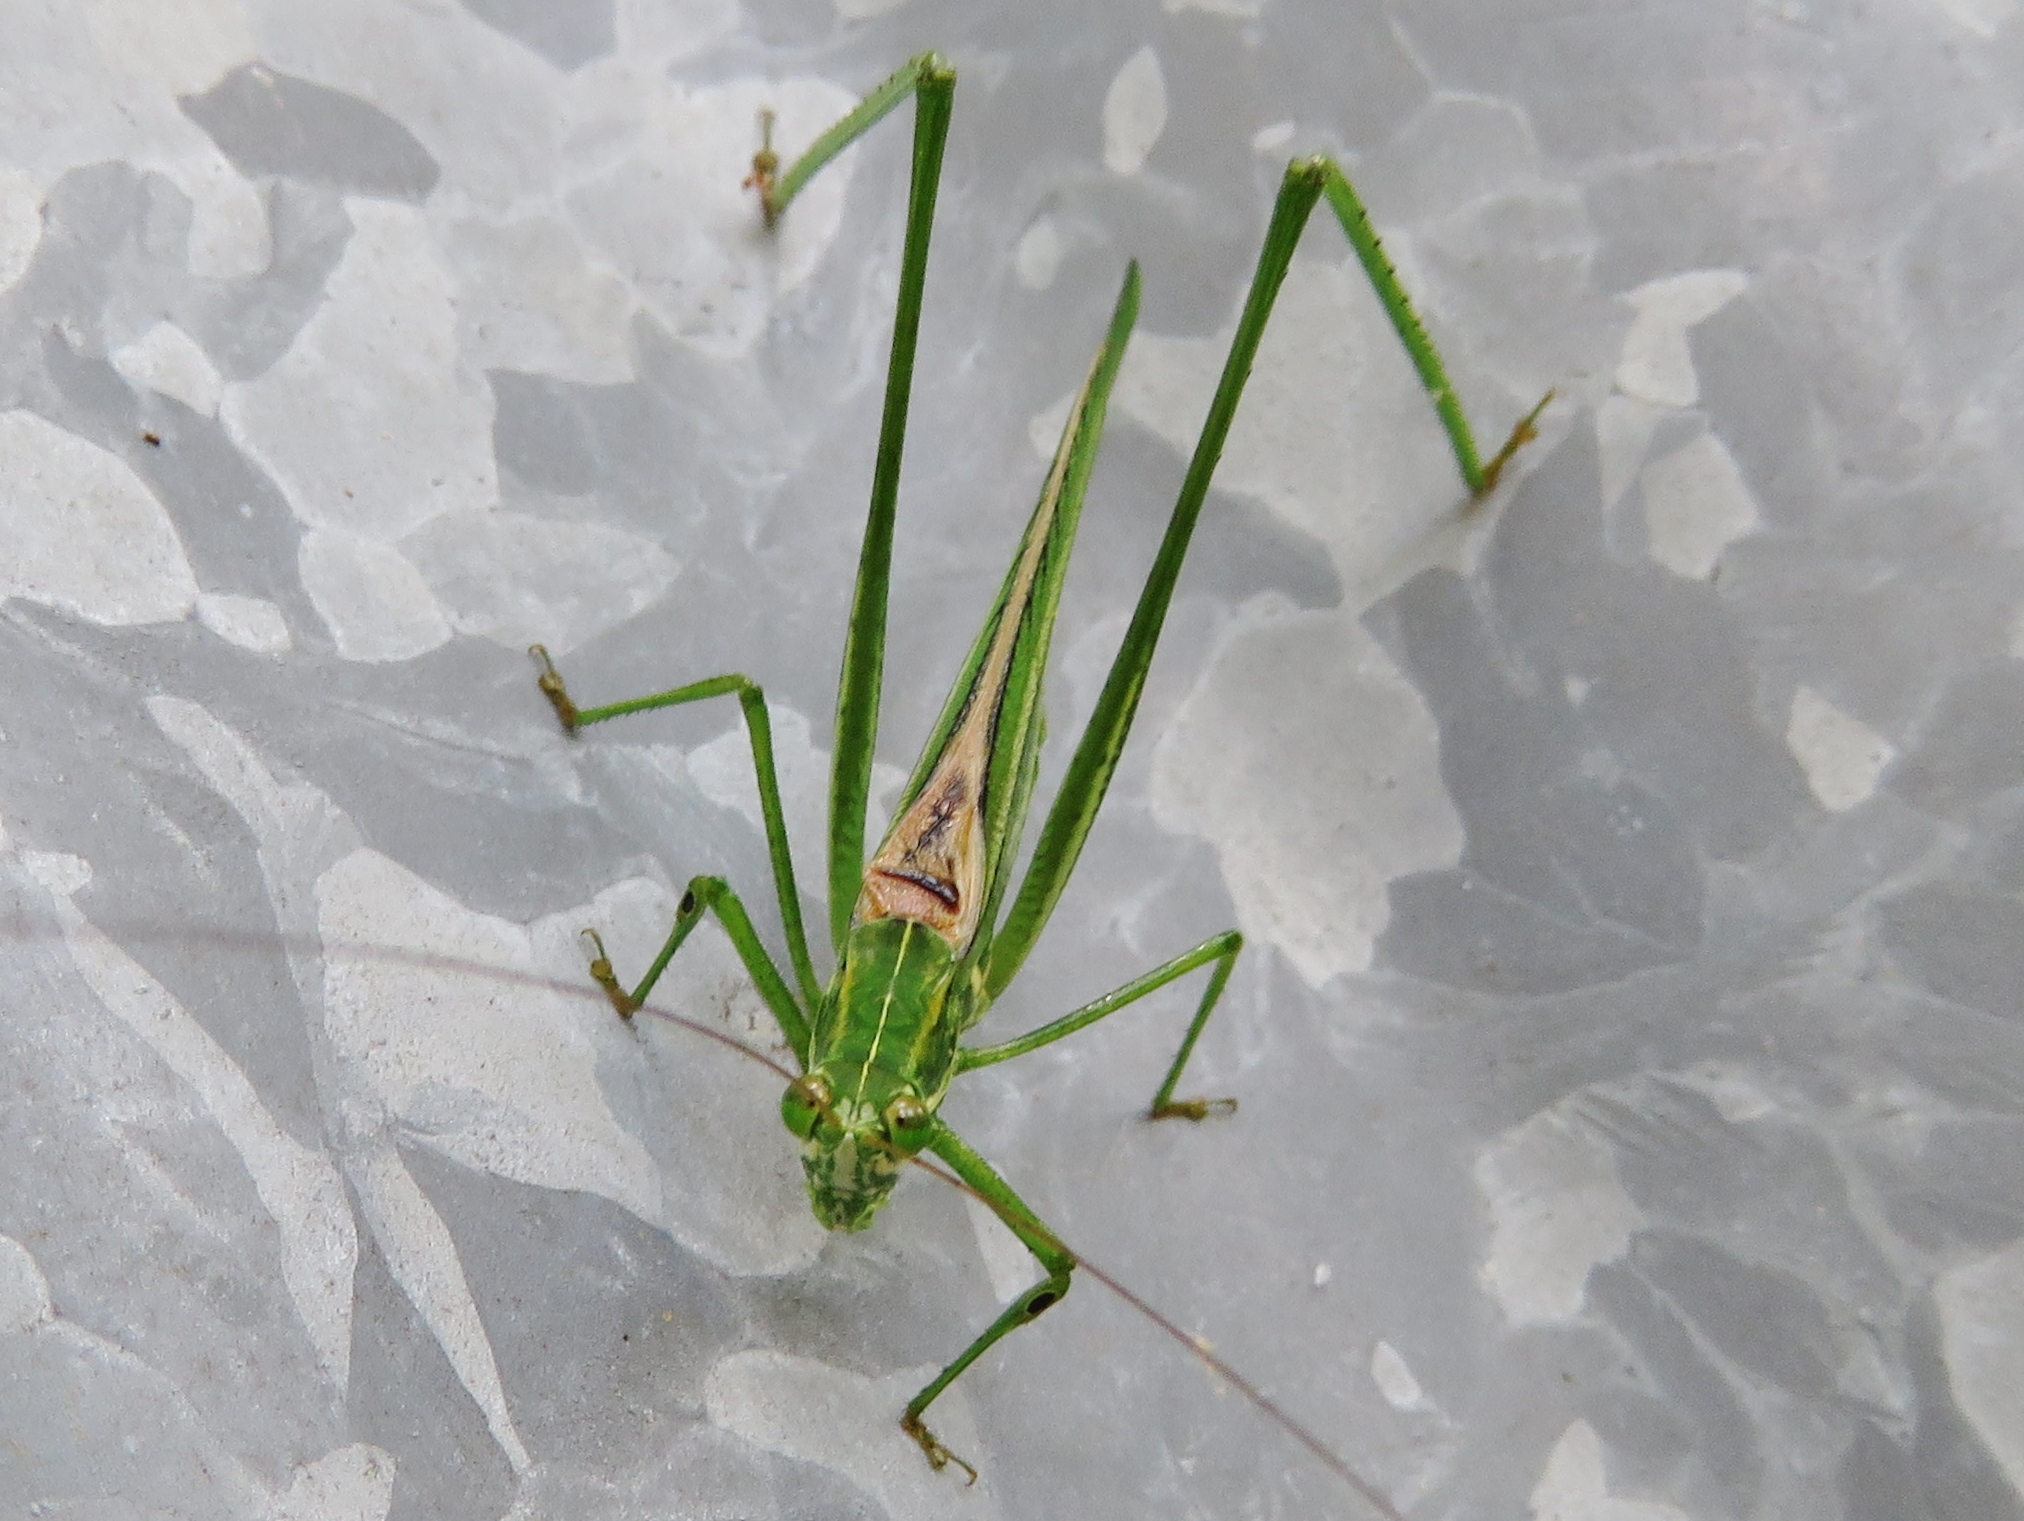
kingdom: Animalia
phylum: Arthropoda
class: Insecta
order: Orthoptera
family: Tettigoniidae
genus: Inscudderia
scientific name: Inscudderia taxodii
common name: Western cypress katydid
